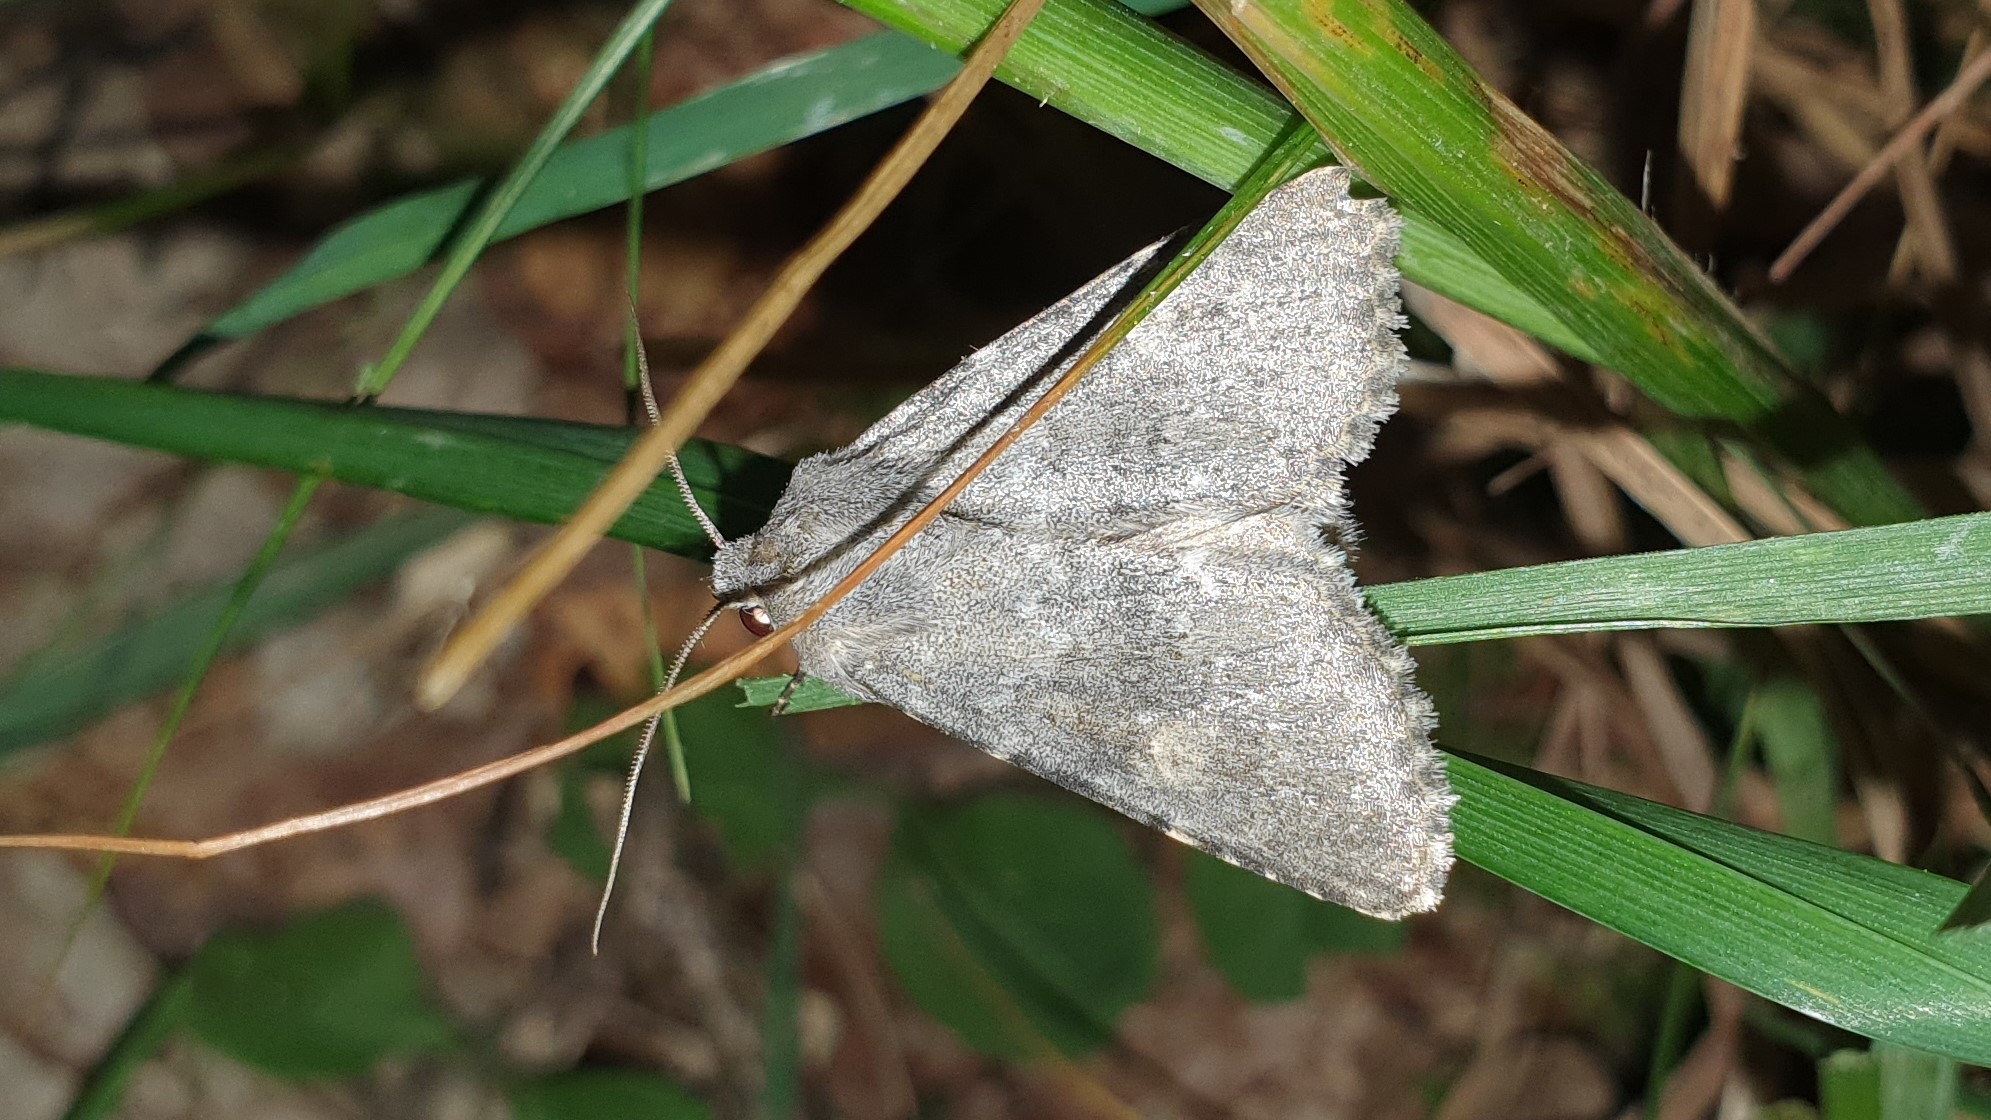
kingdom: Animalia
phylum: Arthropoda
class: Insecta
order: Lepidoptera
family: Noctuidae
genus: Polymixis
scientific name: Polymixis dubia
